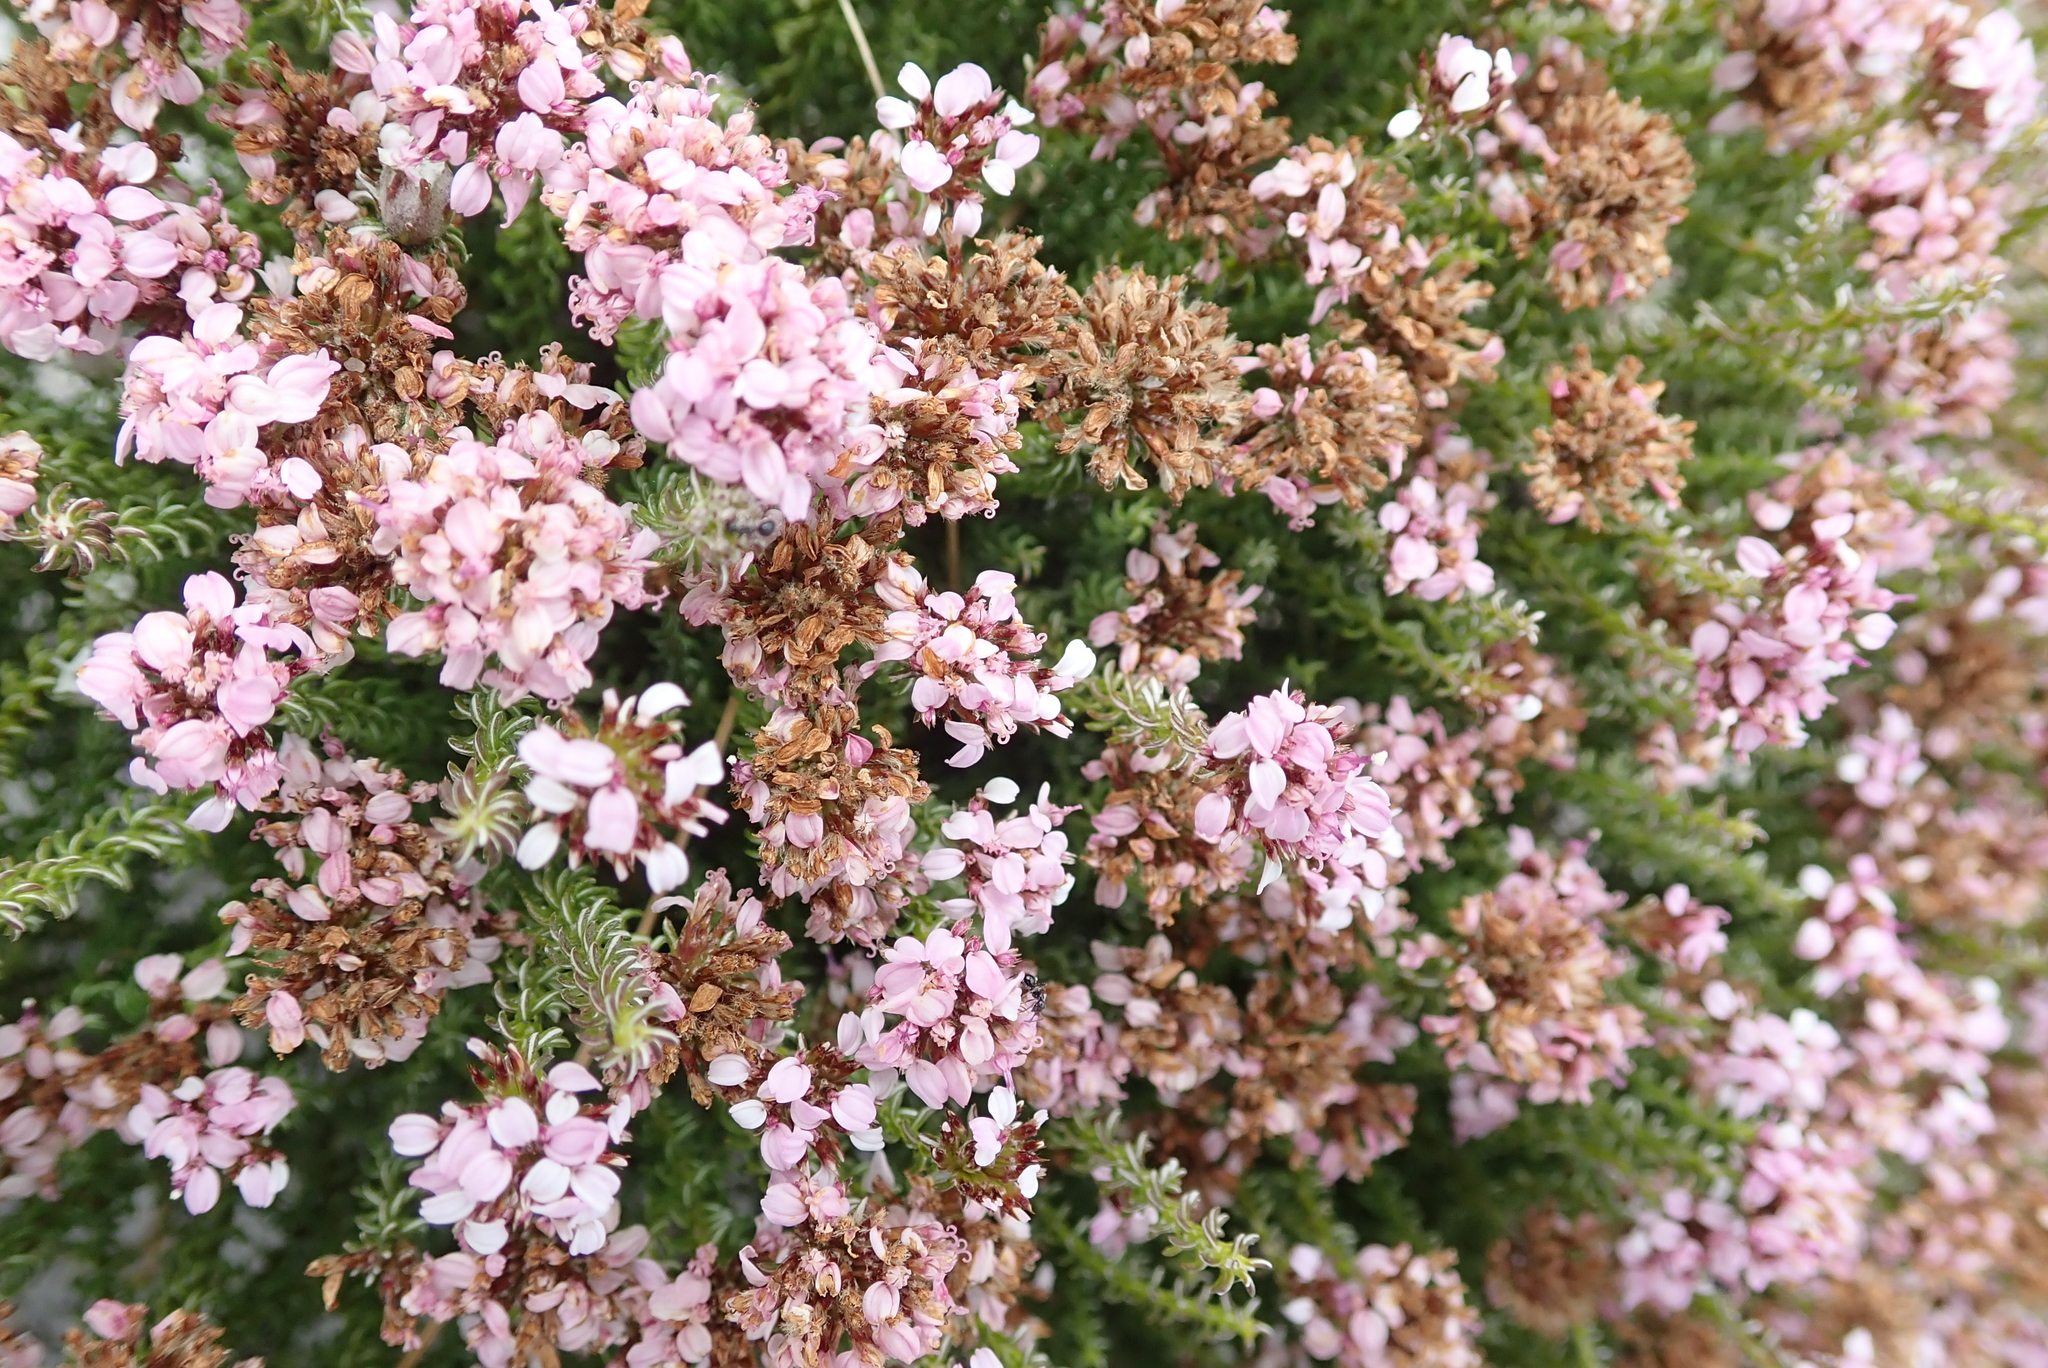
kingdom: Plantae
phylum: Tracheophyta
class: Magnoliopsida
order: Asterales
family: Asteraceae
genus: Disparago
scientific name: Disparago ericoides
